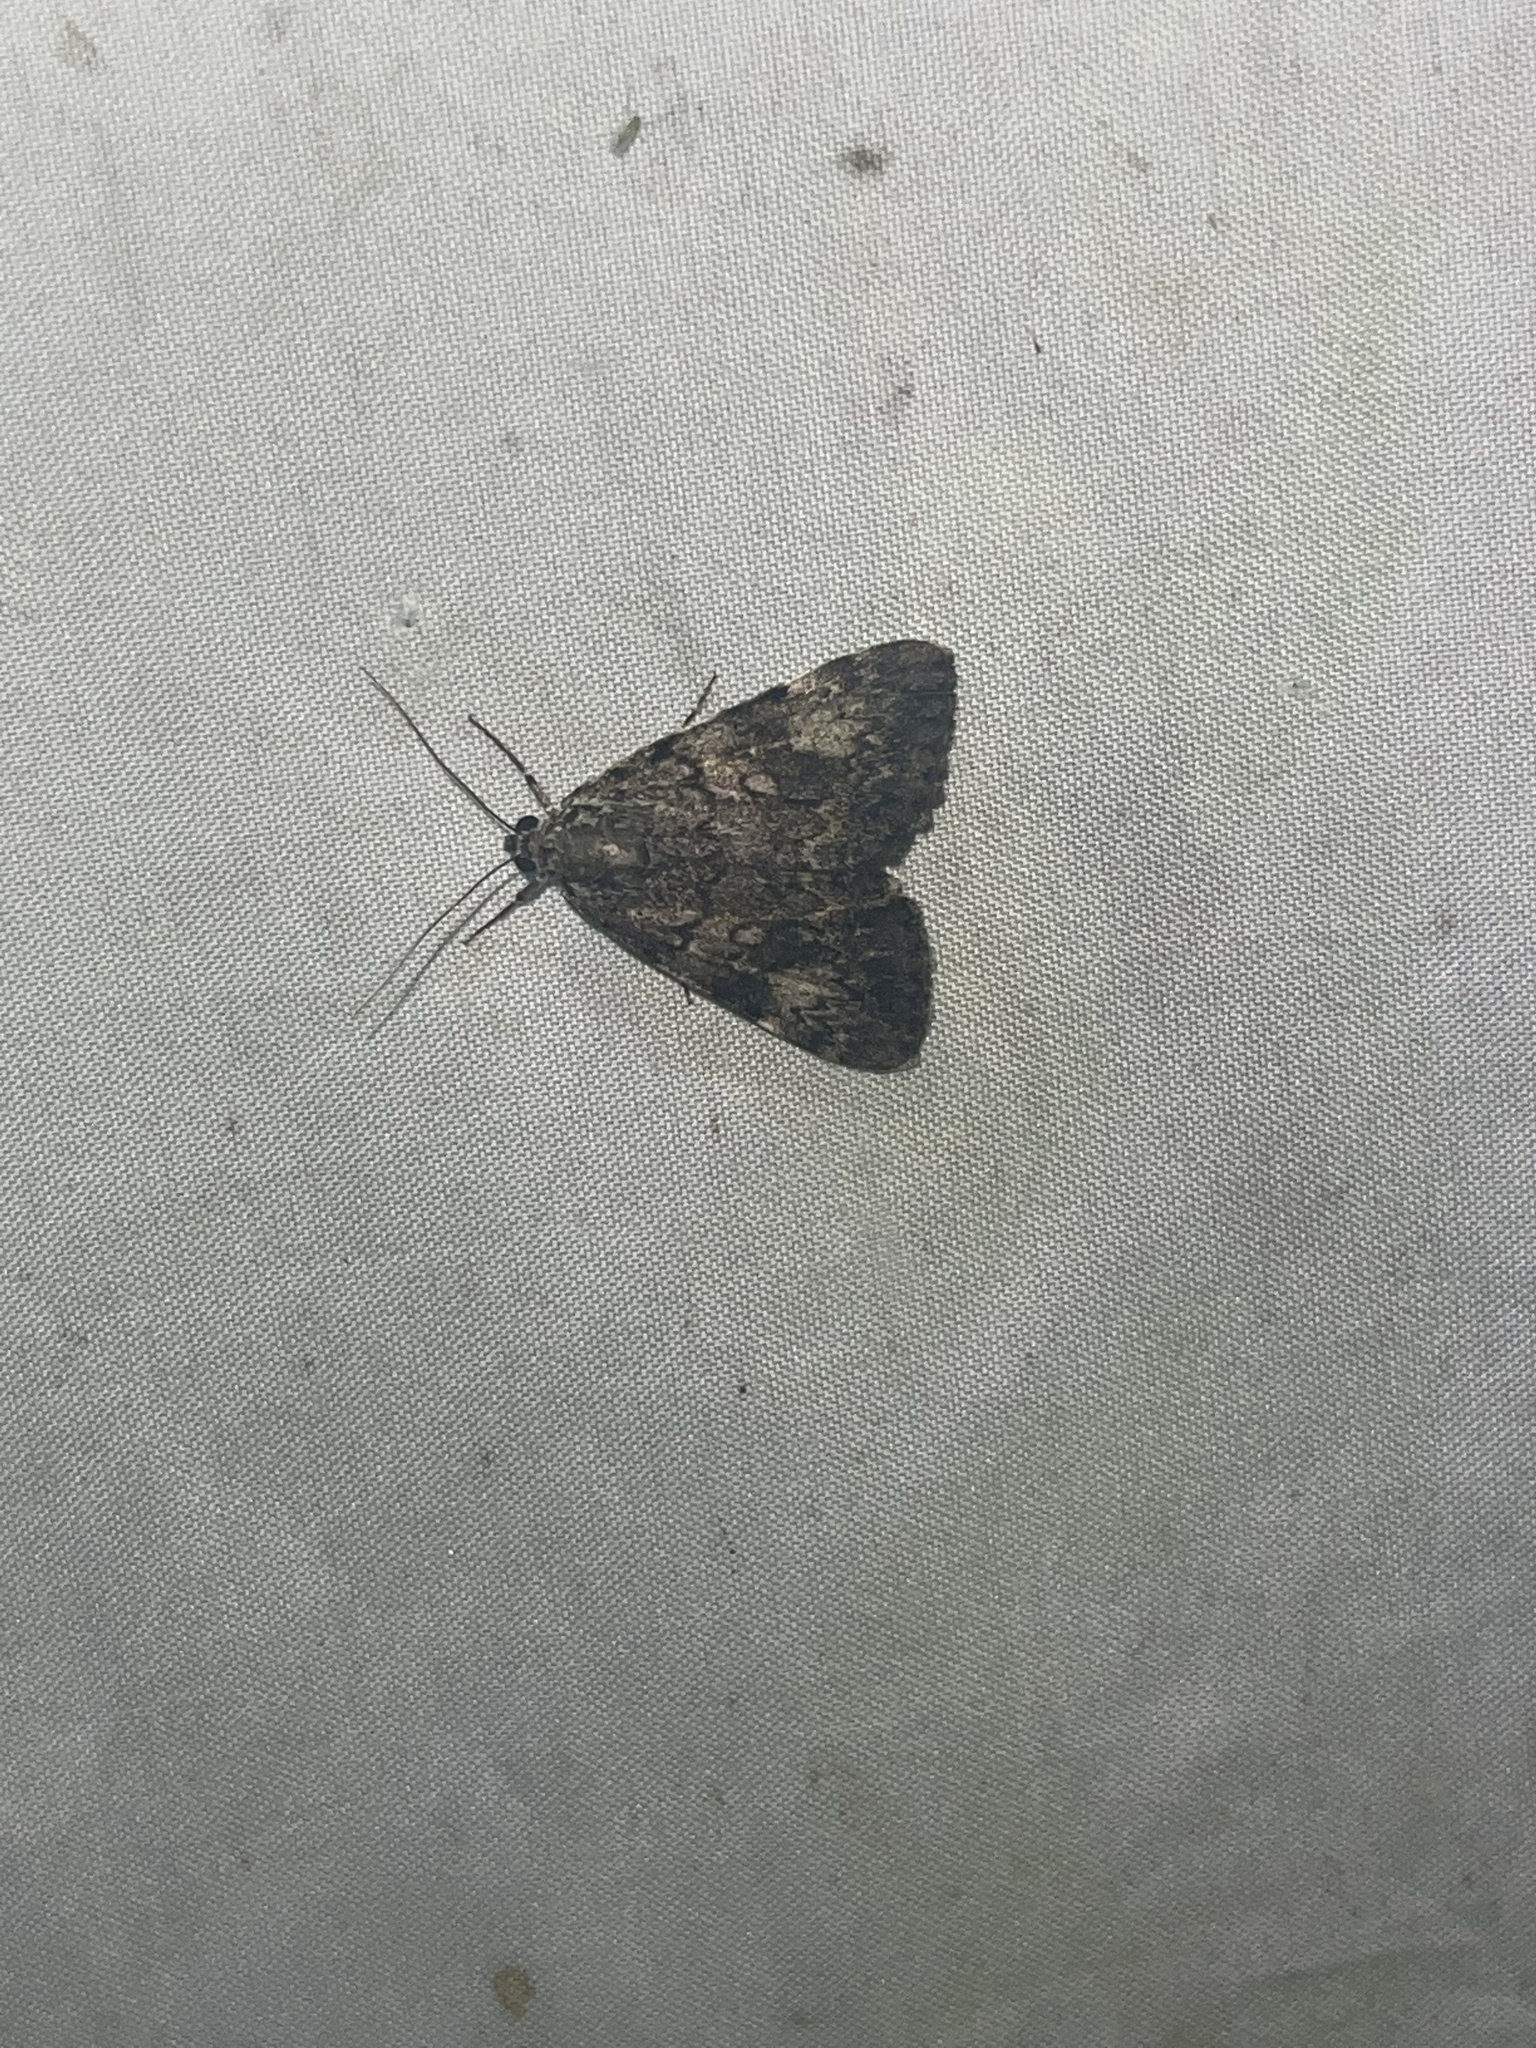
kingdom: Animalia
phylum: Arthropoda
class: Insecta
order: Lepidoptera
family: Erebidae
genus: Catocala
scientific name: Catocala lineella
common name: Little lined underwing
